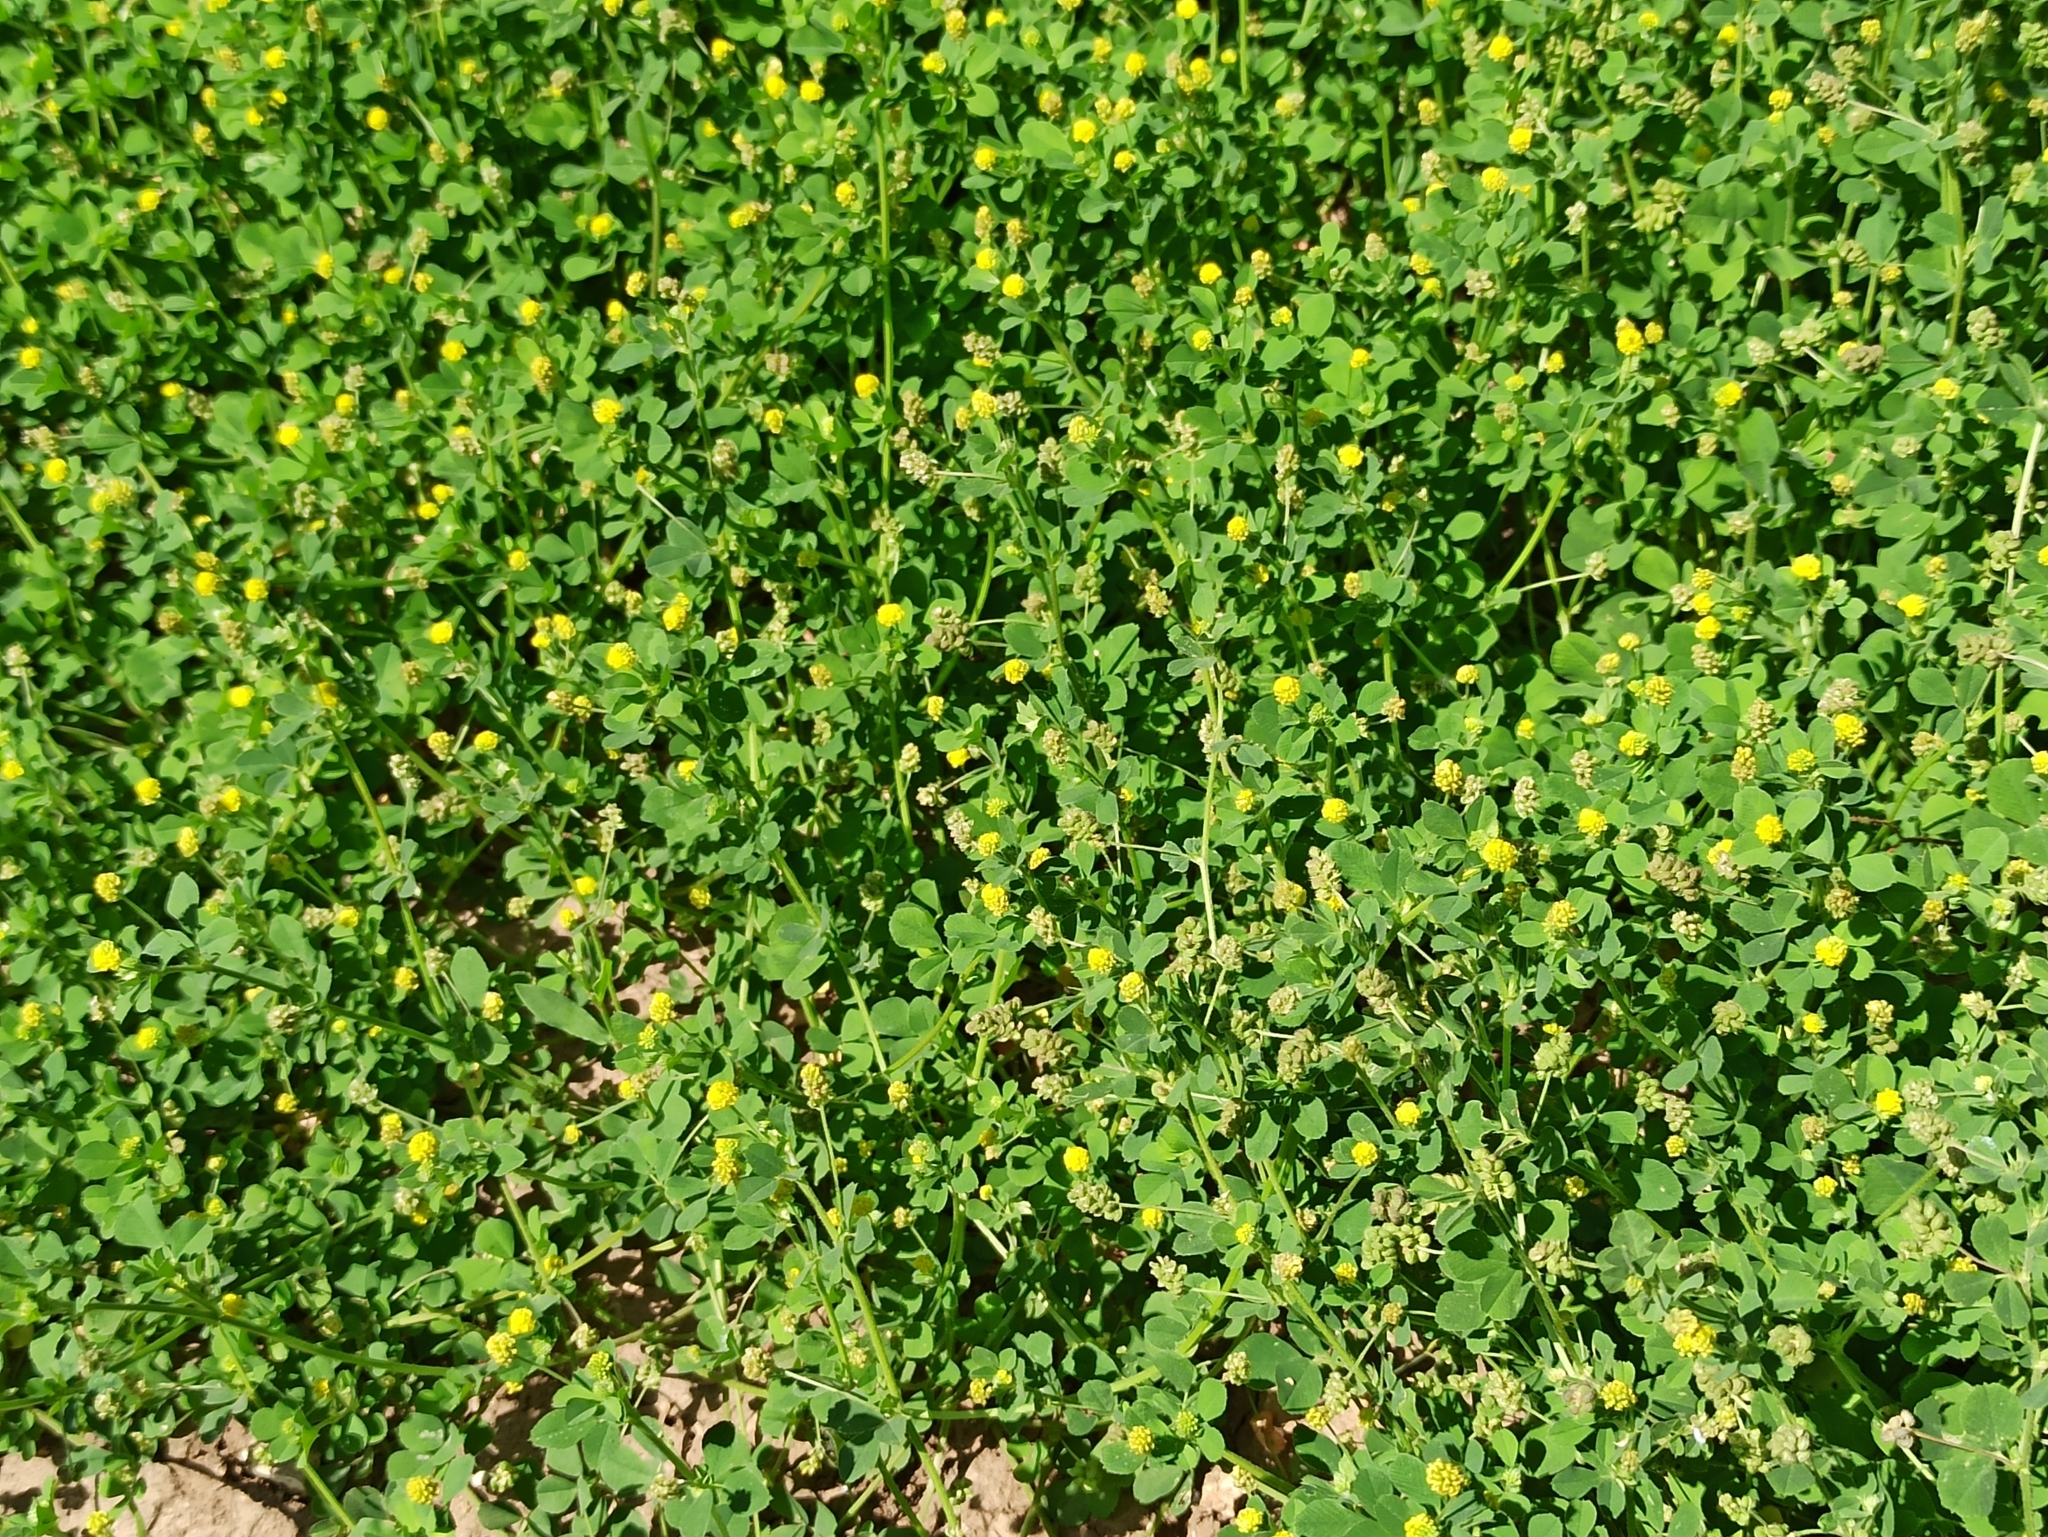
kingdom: Plantae
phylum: Tracheophyta
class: Magnoliopsida
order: Fabales
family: Fabaceae
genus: Medicago
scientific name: Medicago lupulina
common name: Black medick
